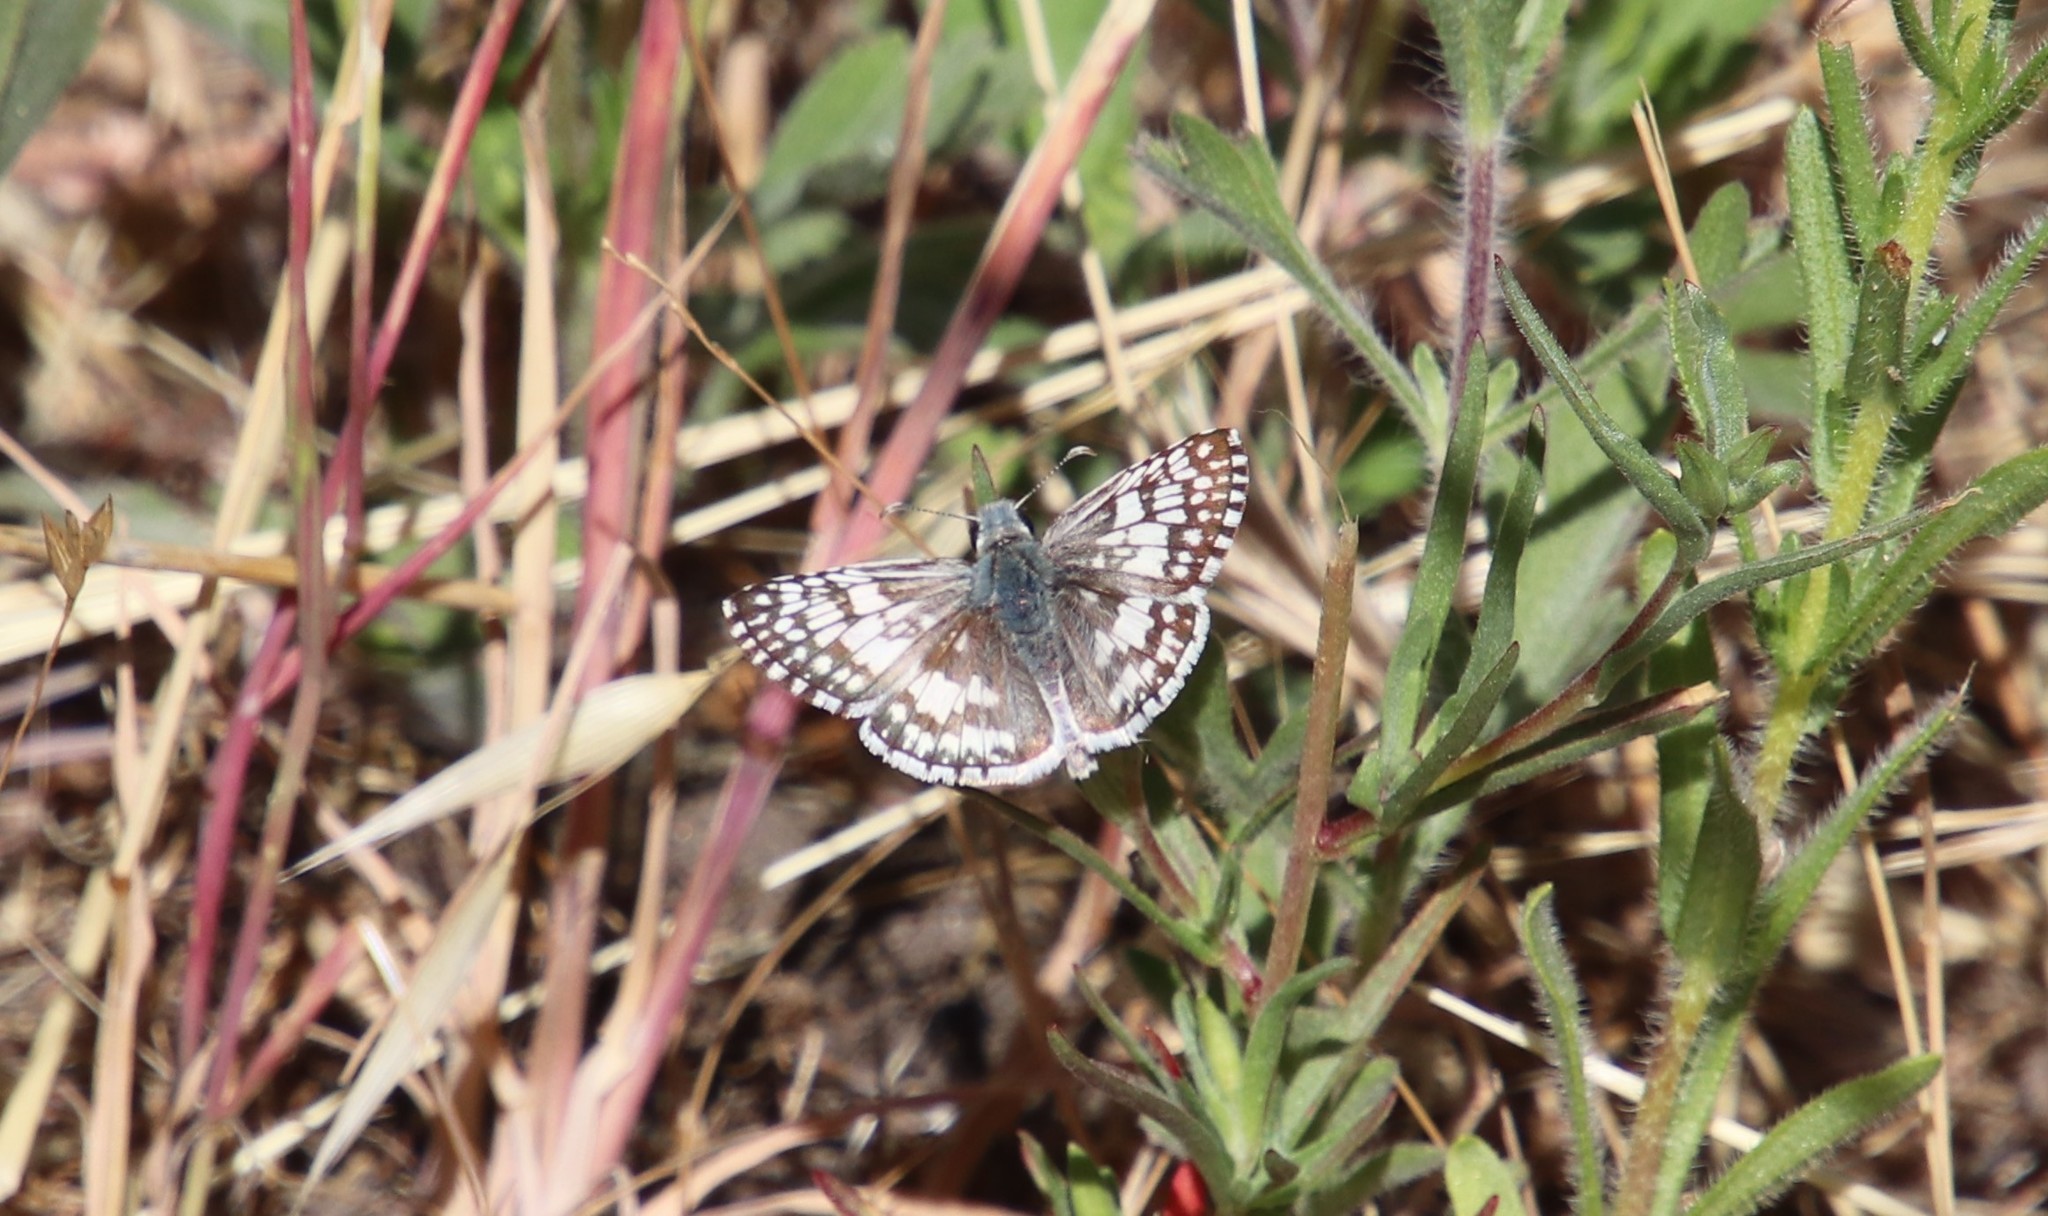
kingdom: Animalia
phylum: Arthropoda
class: Insecta
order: Lepidoptera
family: Hesperiidae
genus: Burnsius
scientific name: Burnsius albezens
